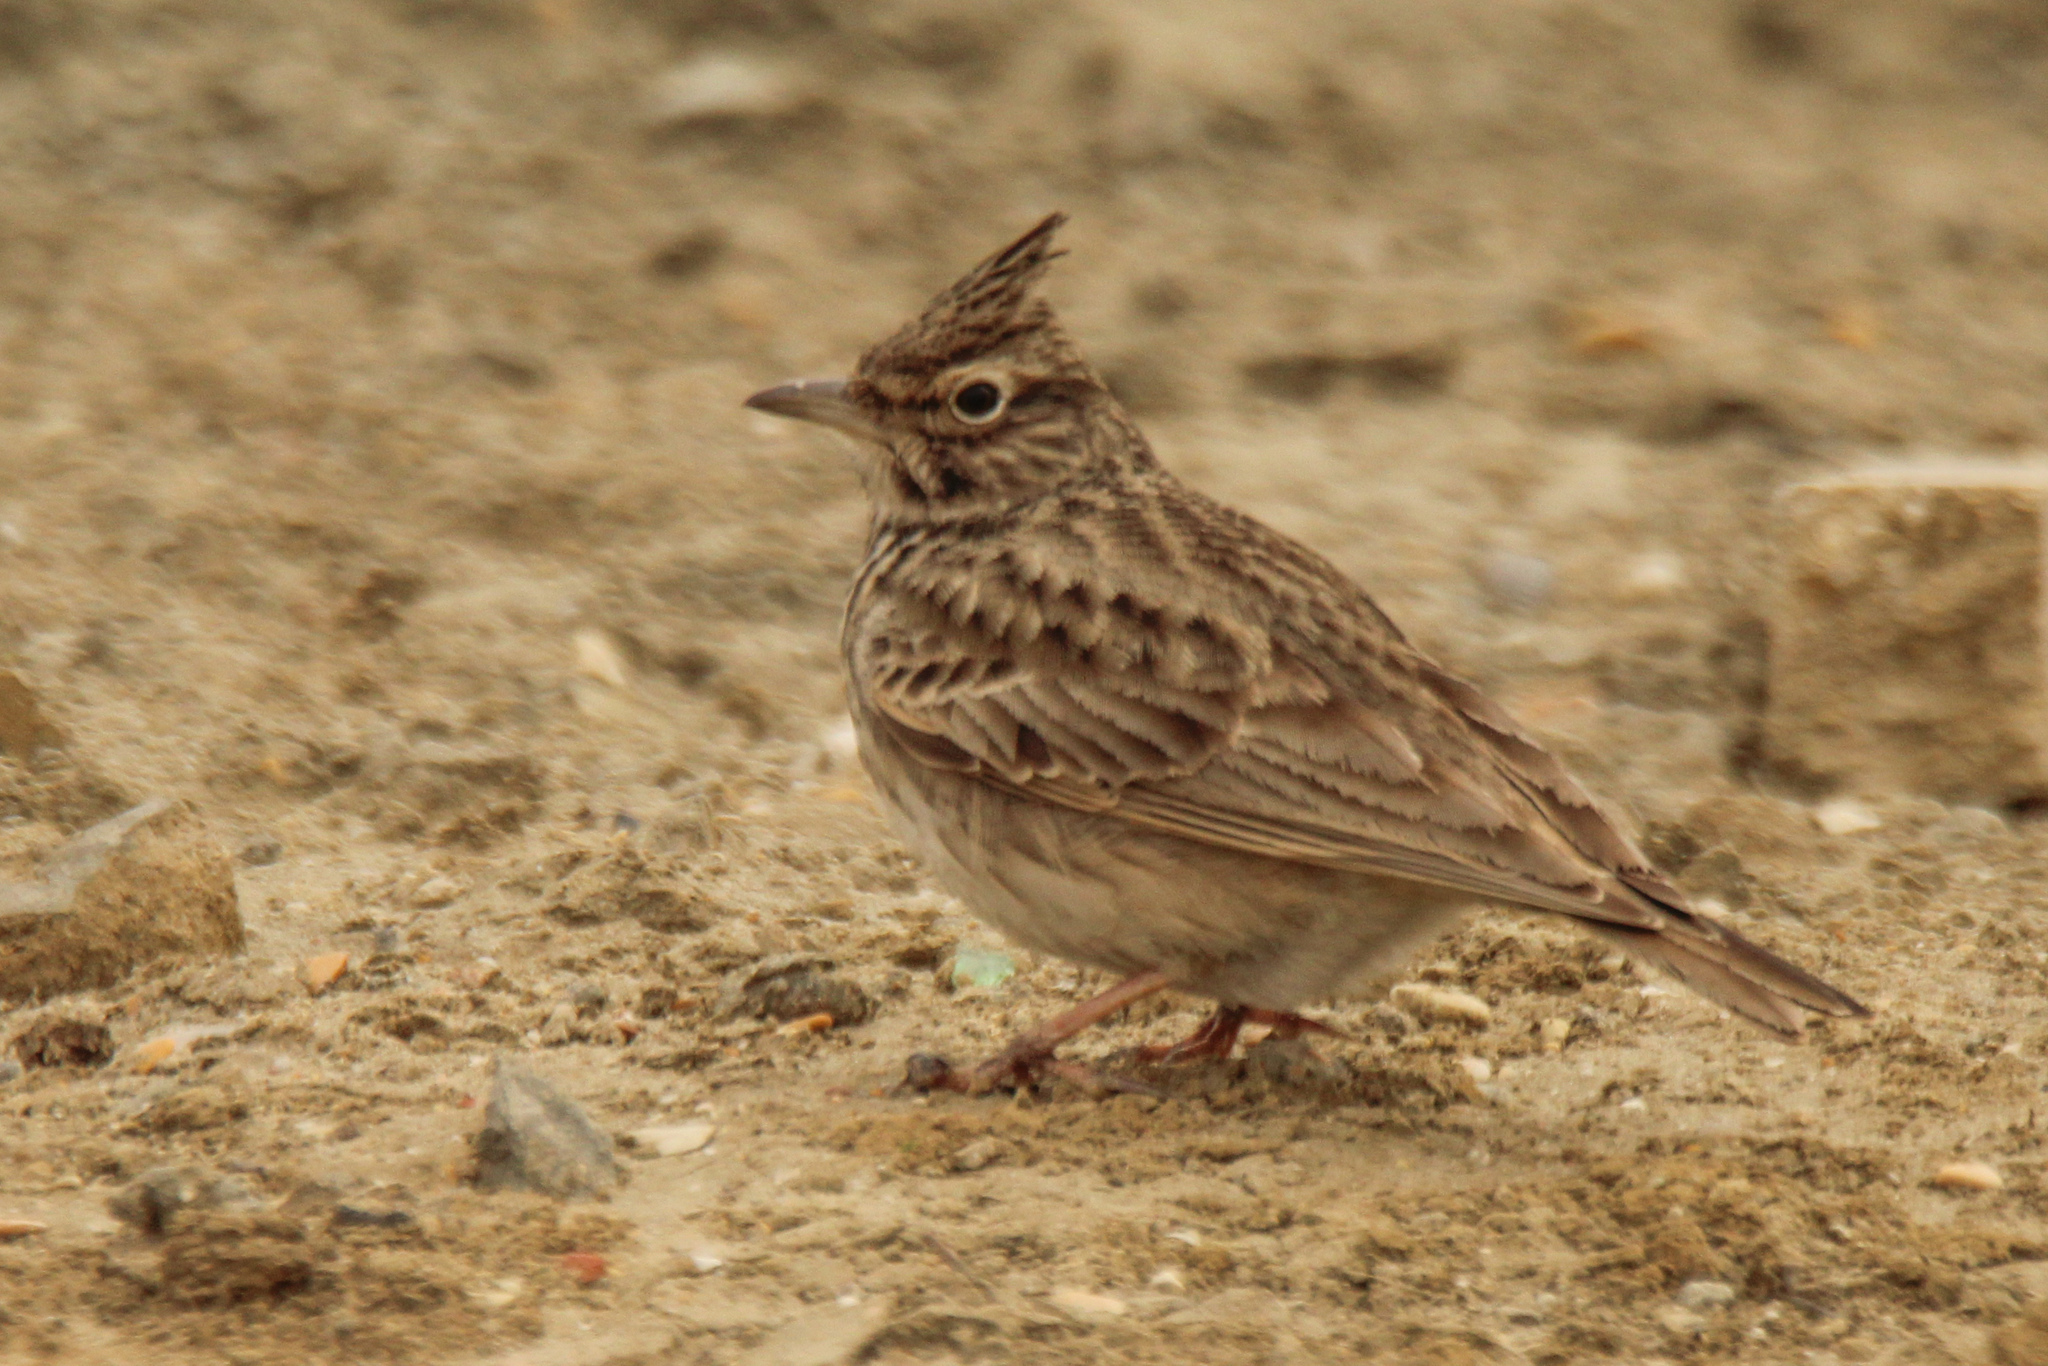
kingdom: Animalia
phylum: Chordata
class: Aves
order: Passeriformes
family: Alaudidae
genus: Galerida
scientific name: Galerida cristata
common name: Crested lark
